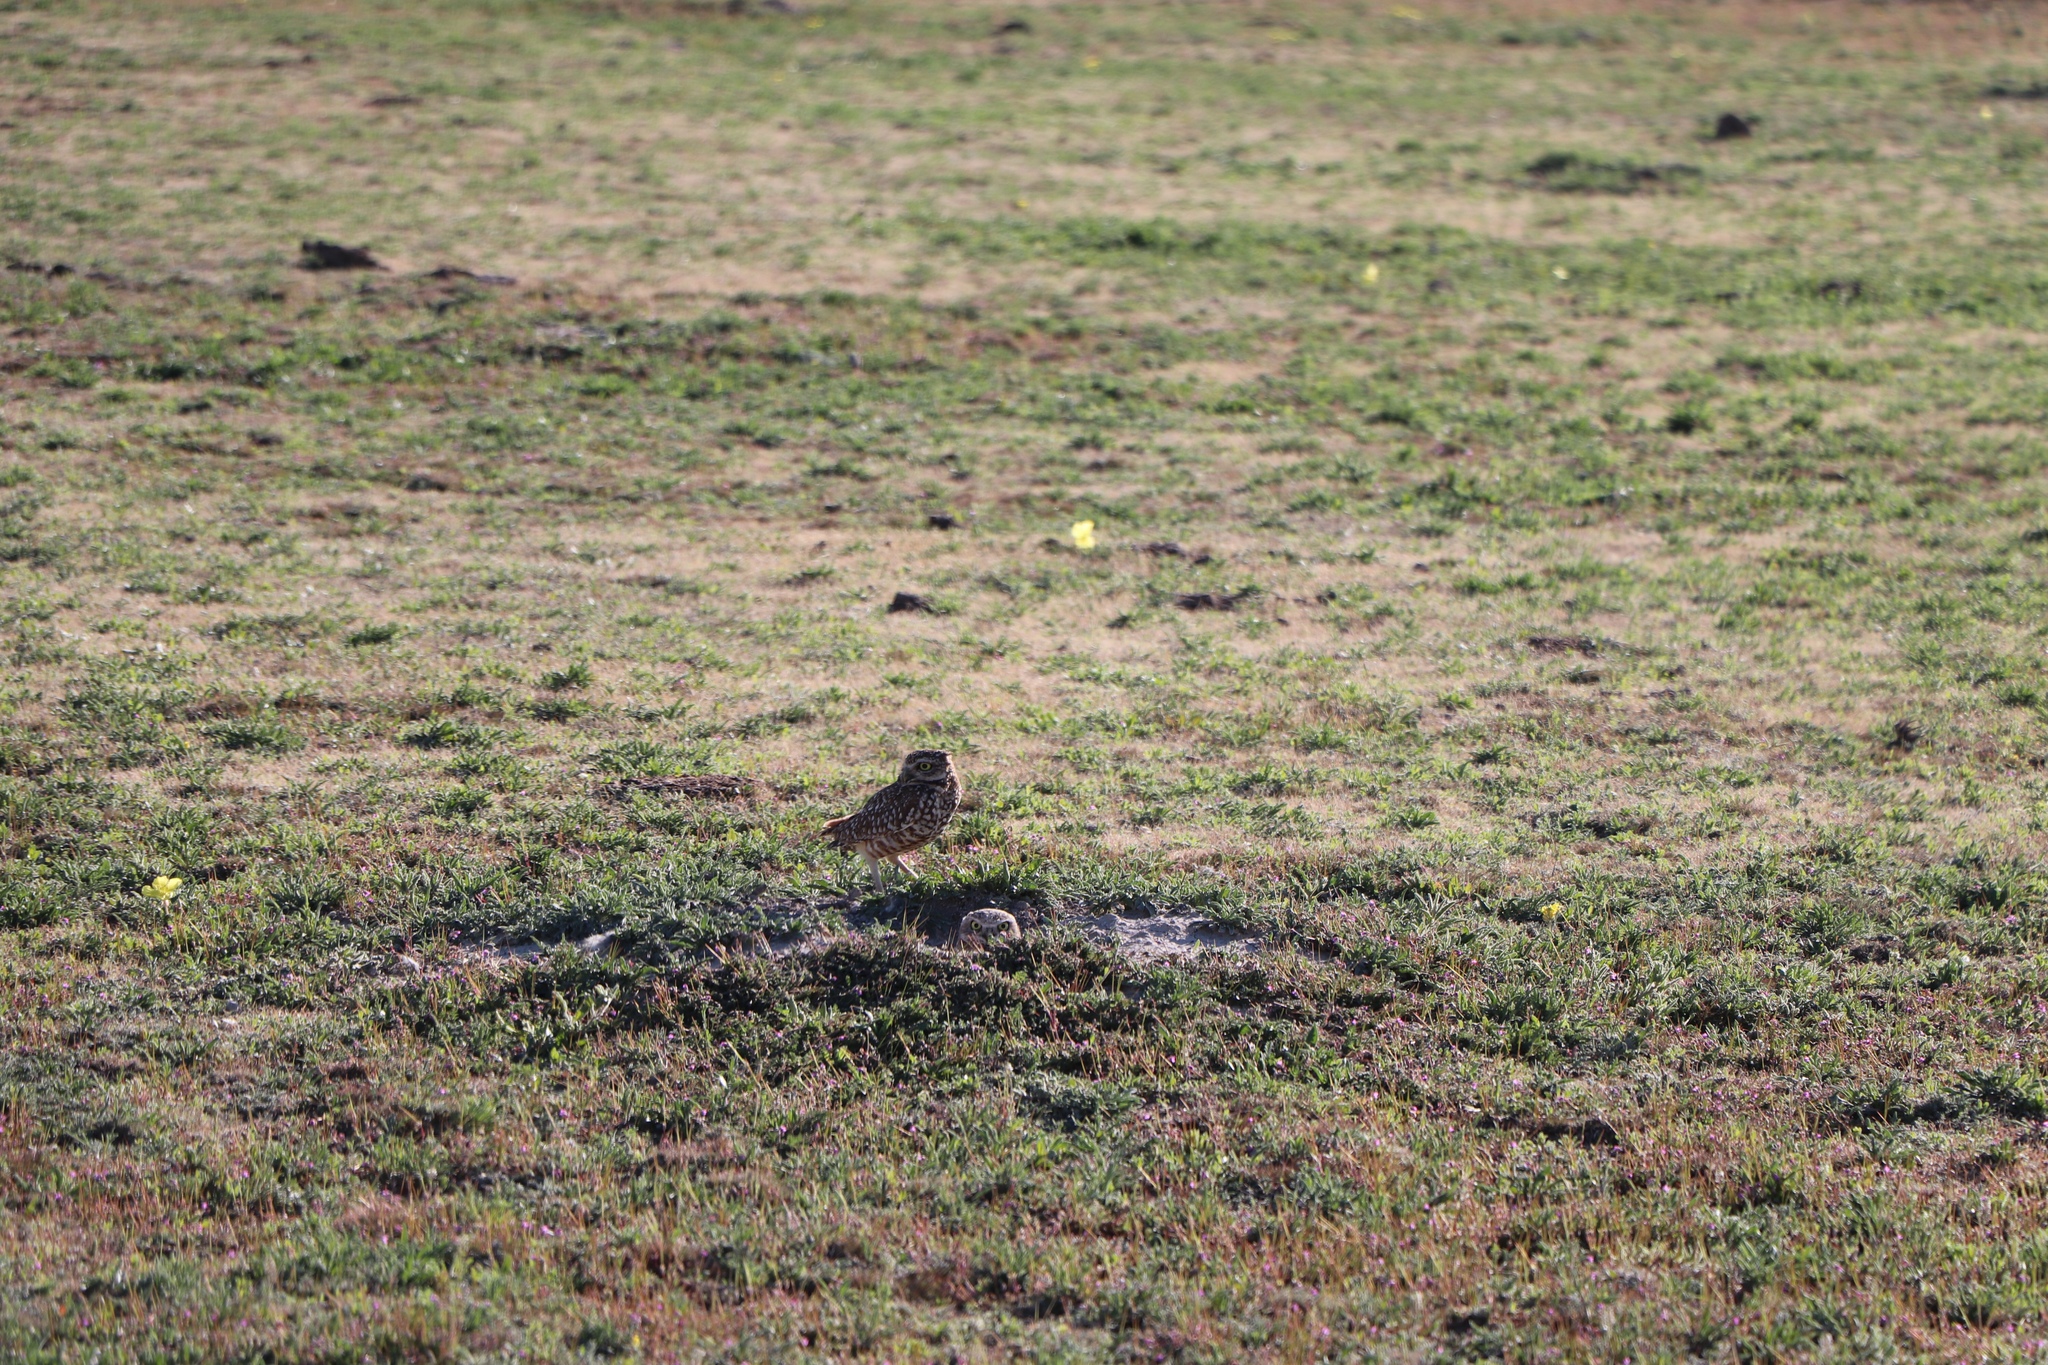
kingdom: Animalia
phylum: Chordata
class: Aves
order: Strigiformes
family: Strigidae
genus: Athene
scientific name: Athene cunicularia
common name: Burrowing owl
